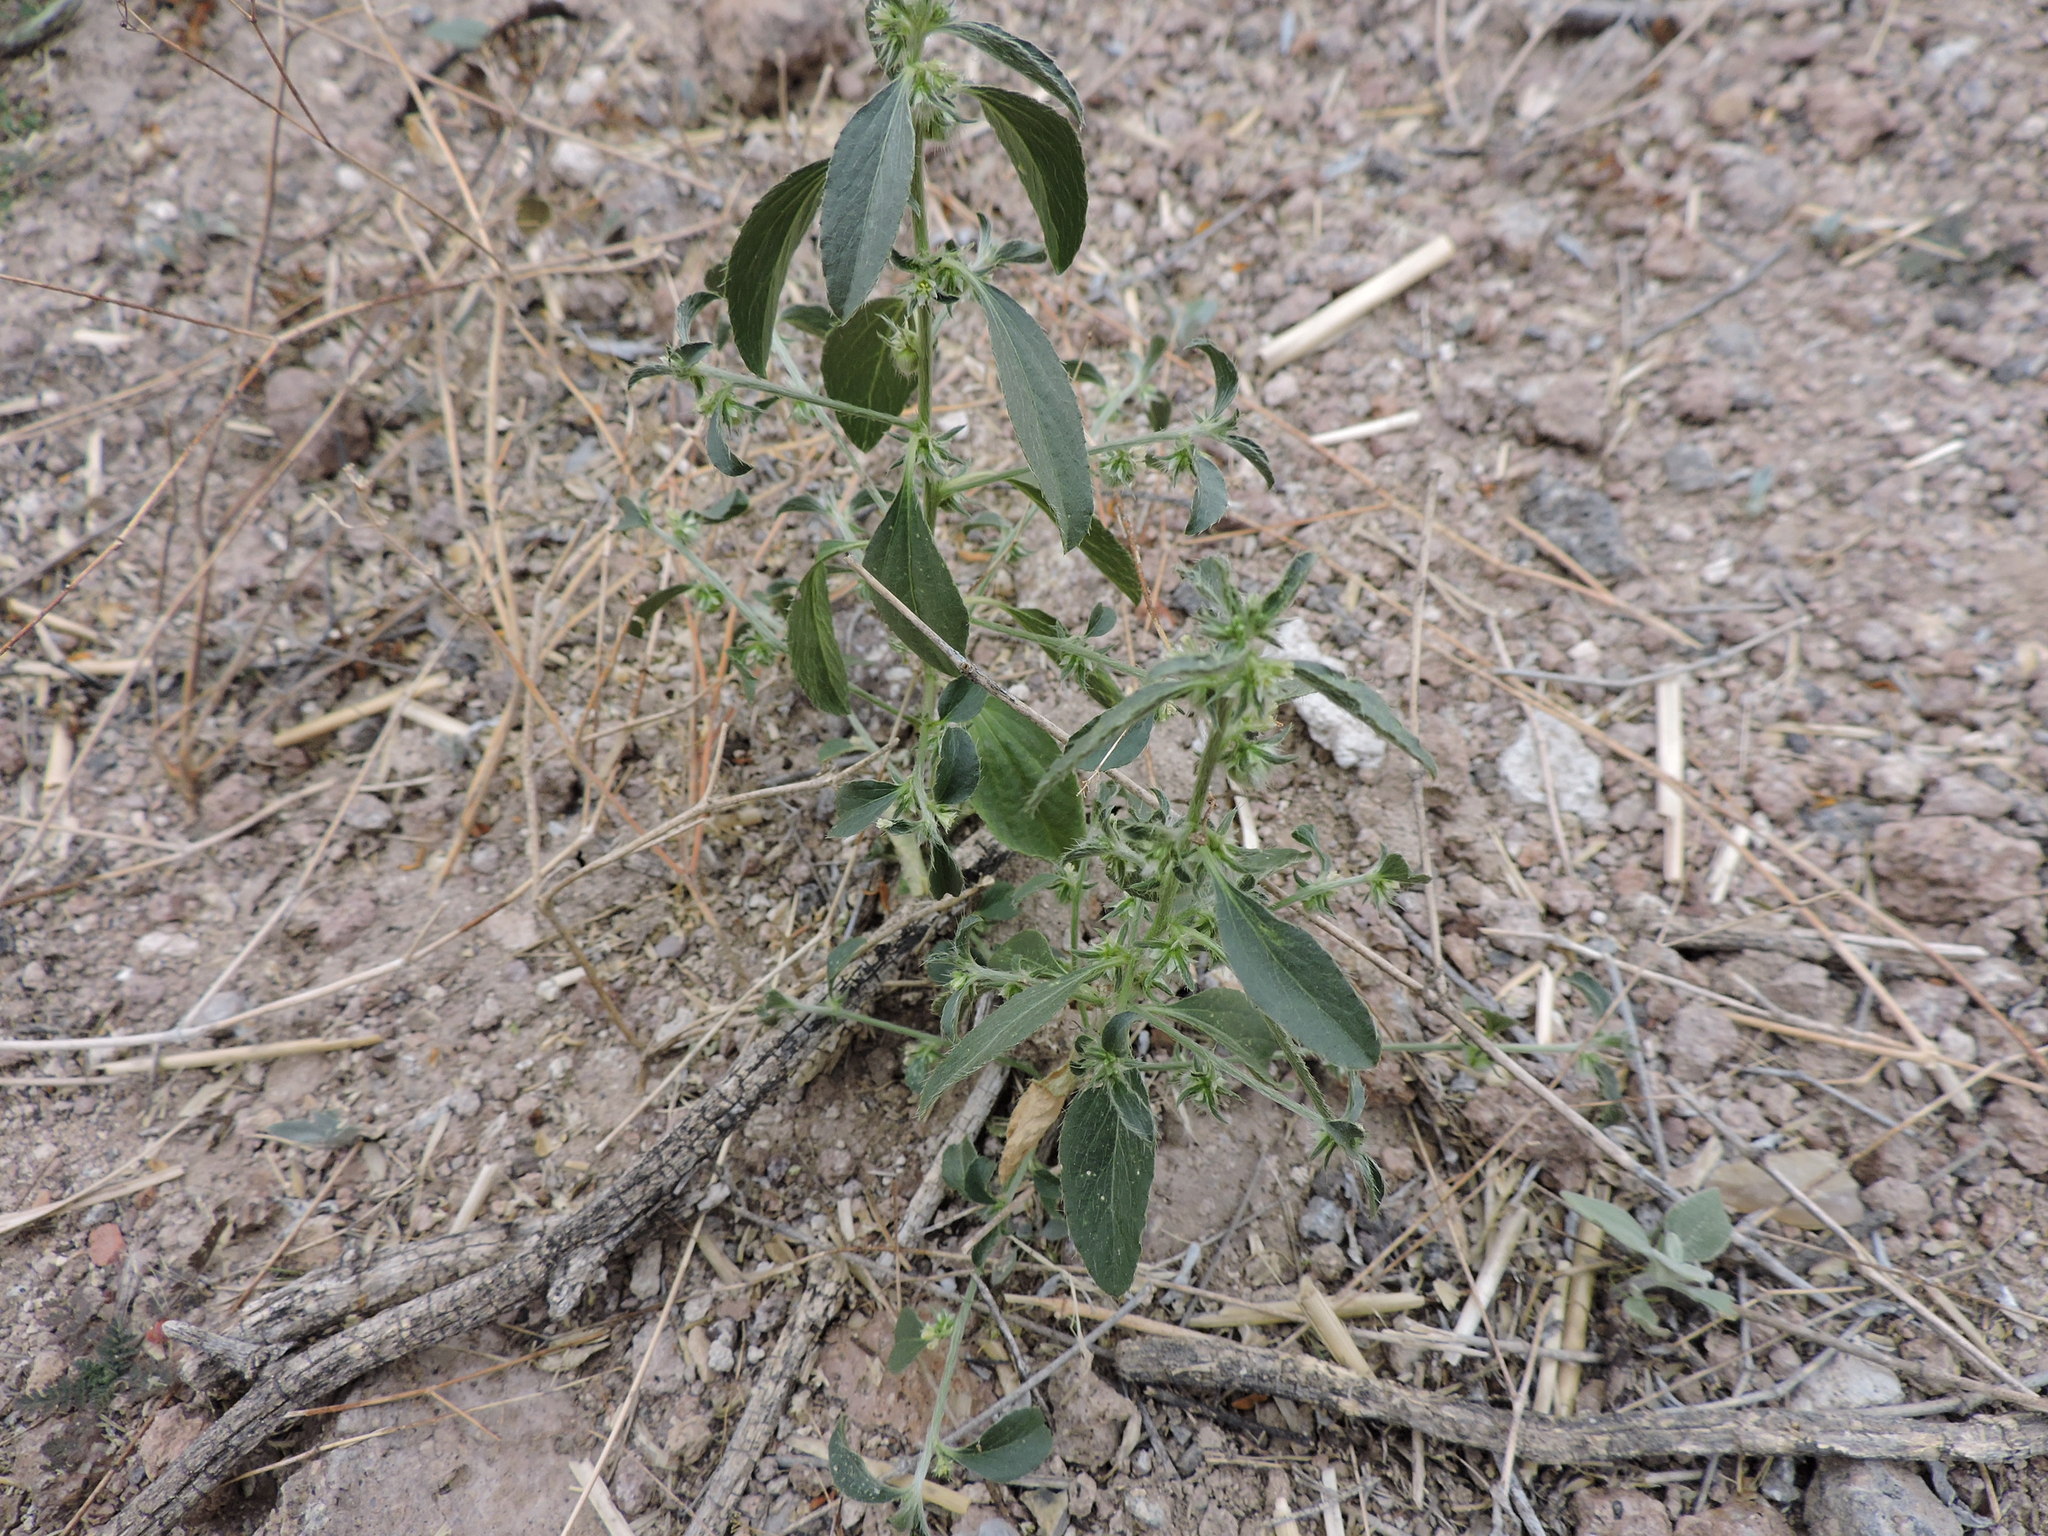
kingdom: Plantae
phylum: Tracheophyta
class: Magnoliopsida
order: Malpighiales
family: Euphorbiaceae
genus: Ditaxis
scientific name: Ditaxis serrata
